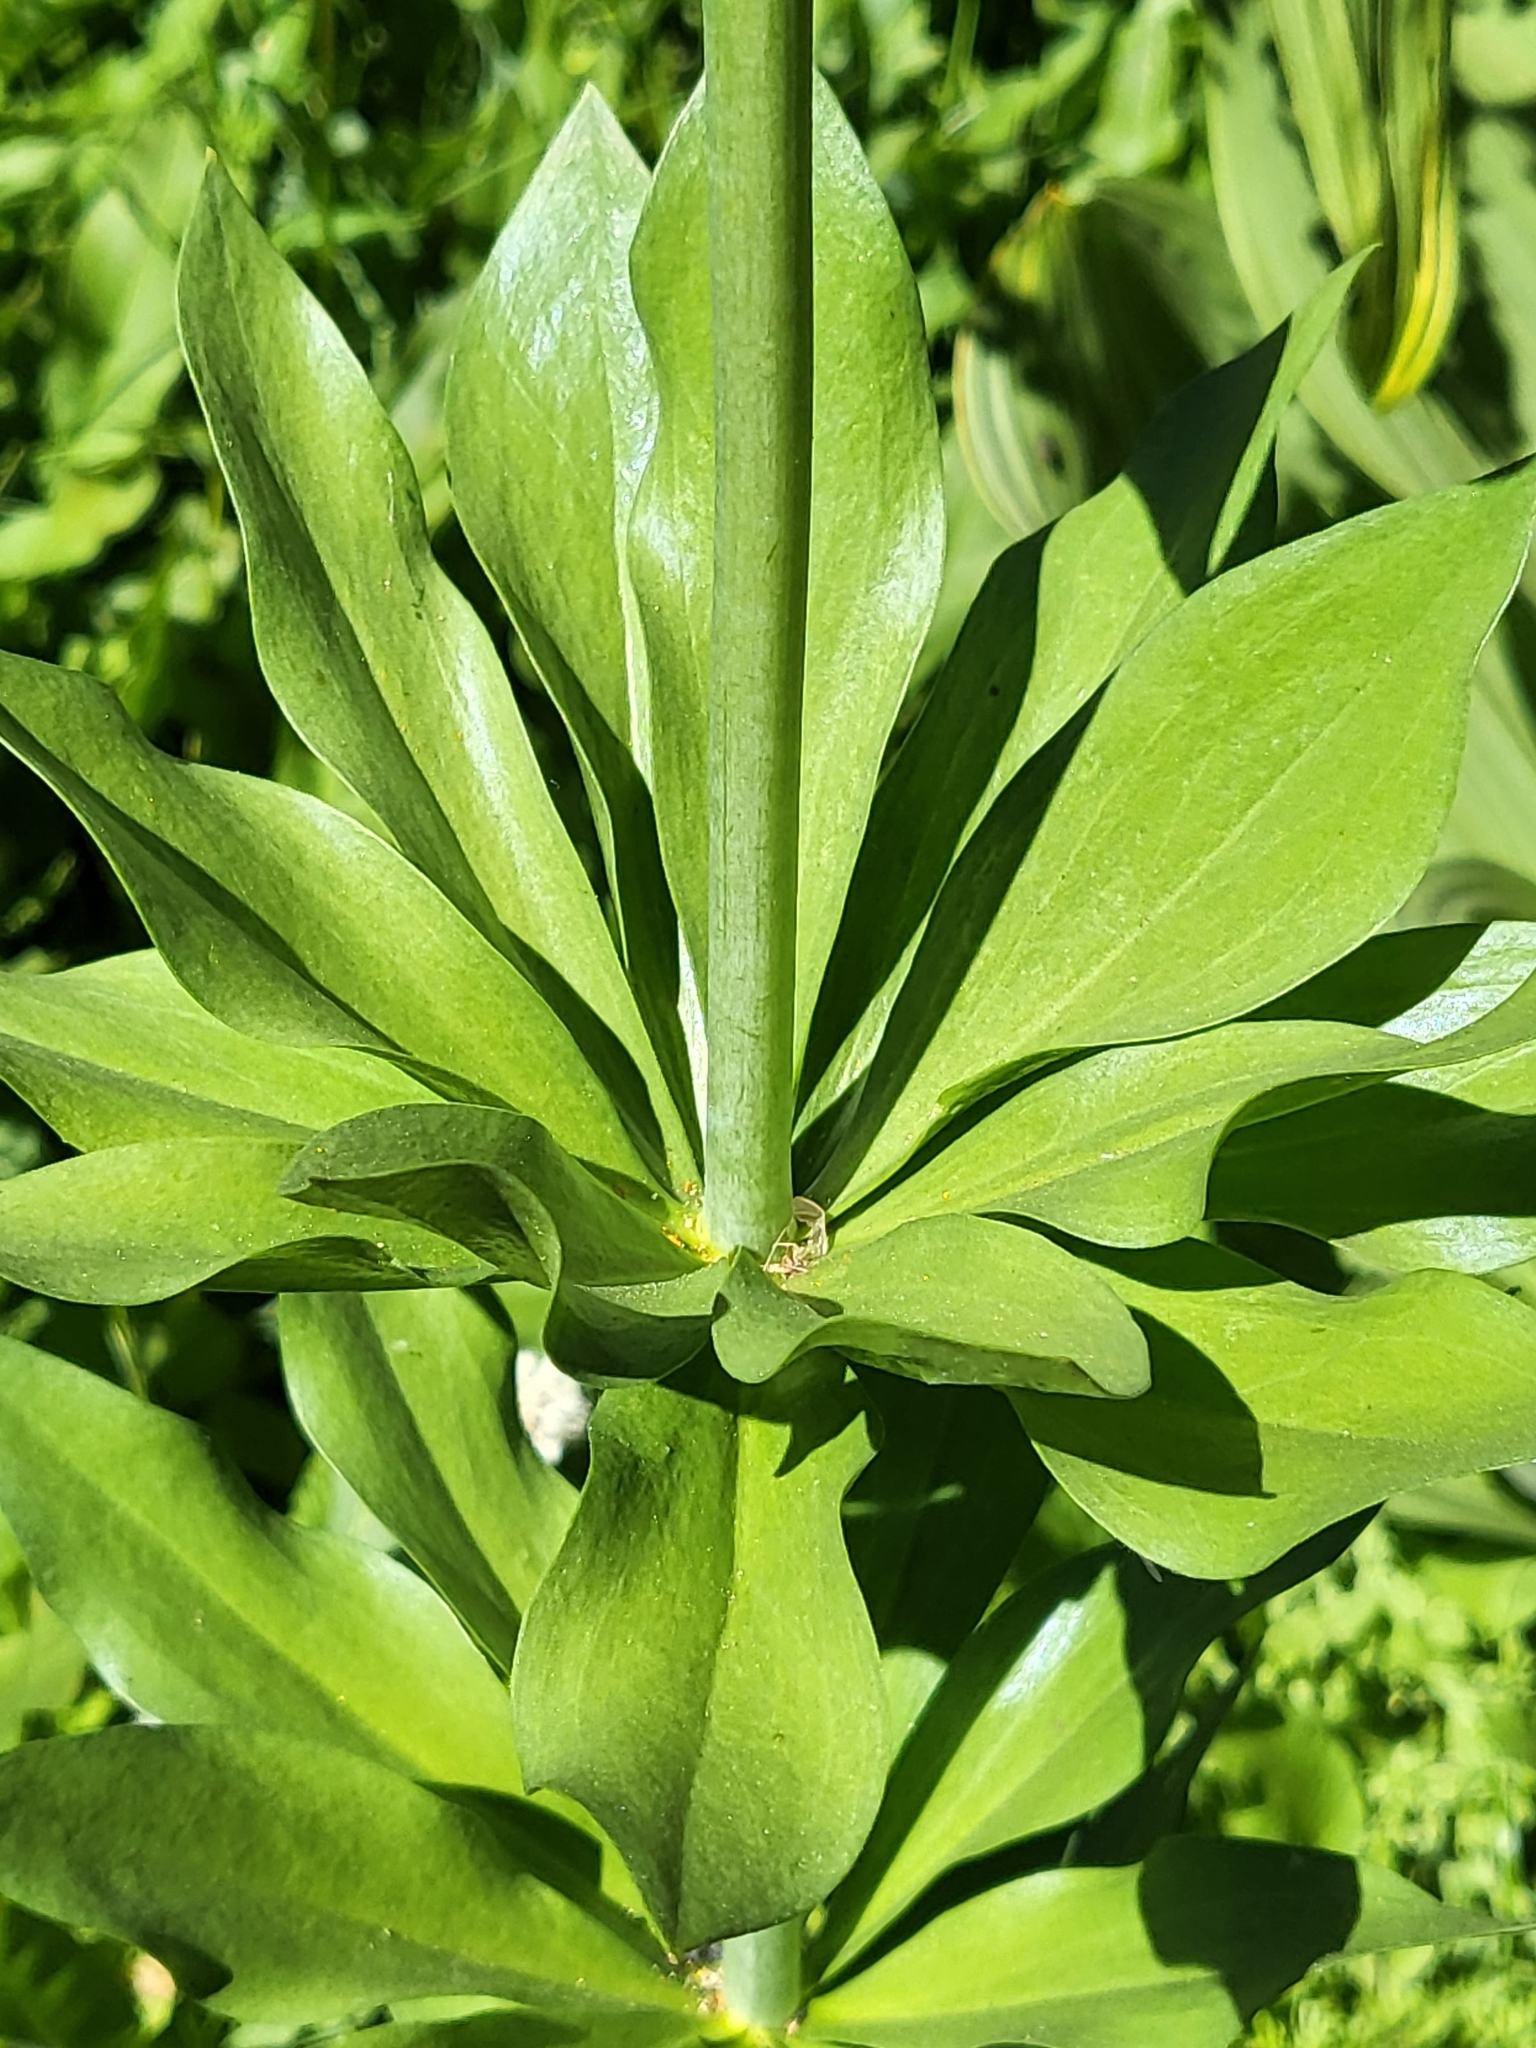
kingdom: Plantae
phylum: Tracheophyta
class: Liliopsida
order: Liliales
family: Liliaceae
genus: Lilium
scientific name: Lilium kelleyanum
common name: Kelley's lily
